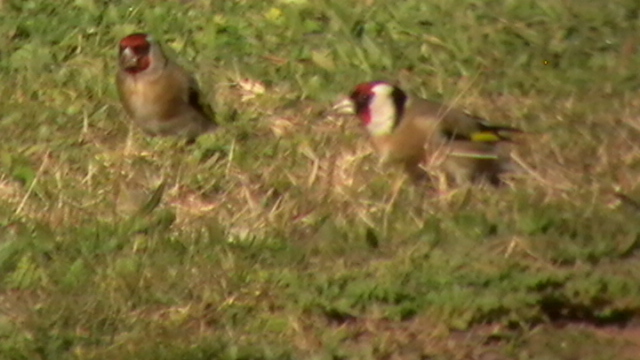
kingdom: Animalia
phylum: Chordata
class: Aves
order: Passeriformes
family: Fringillidae
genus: Carduelis
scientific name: Carduelis carduelis
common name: European goldfinch
